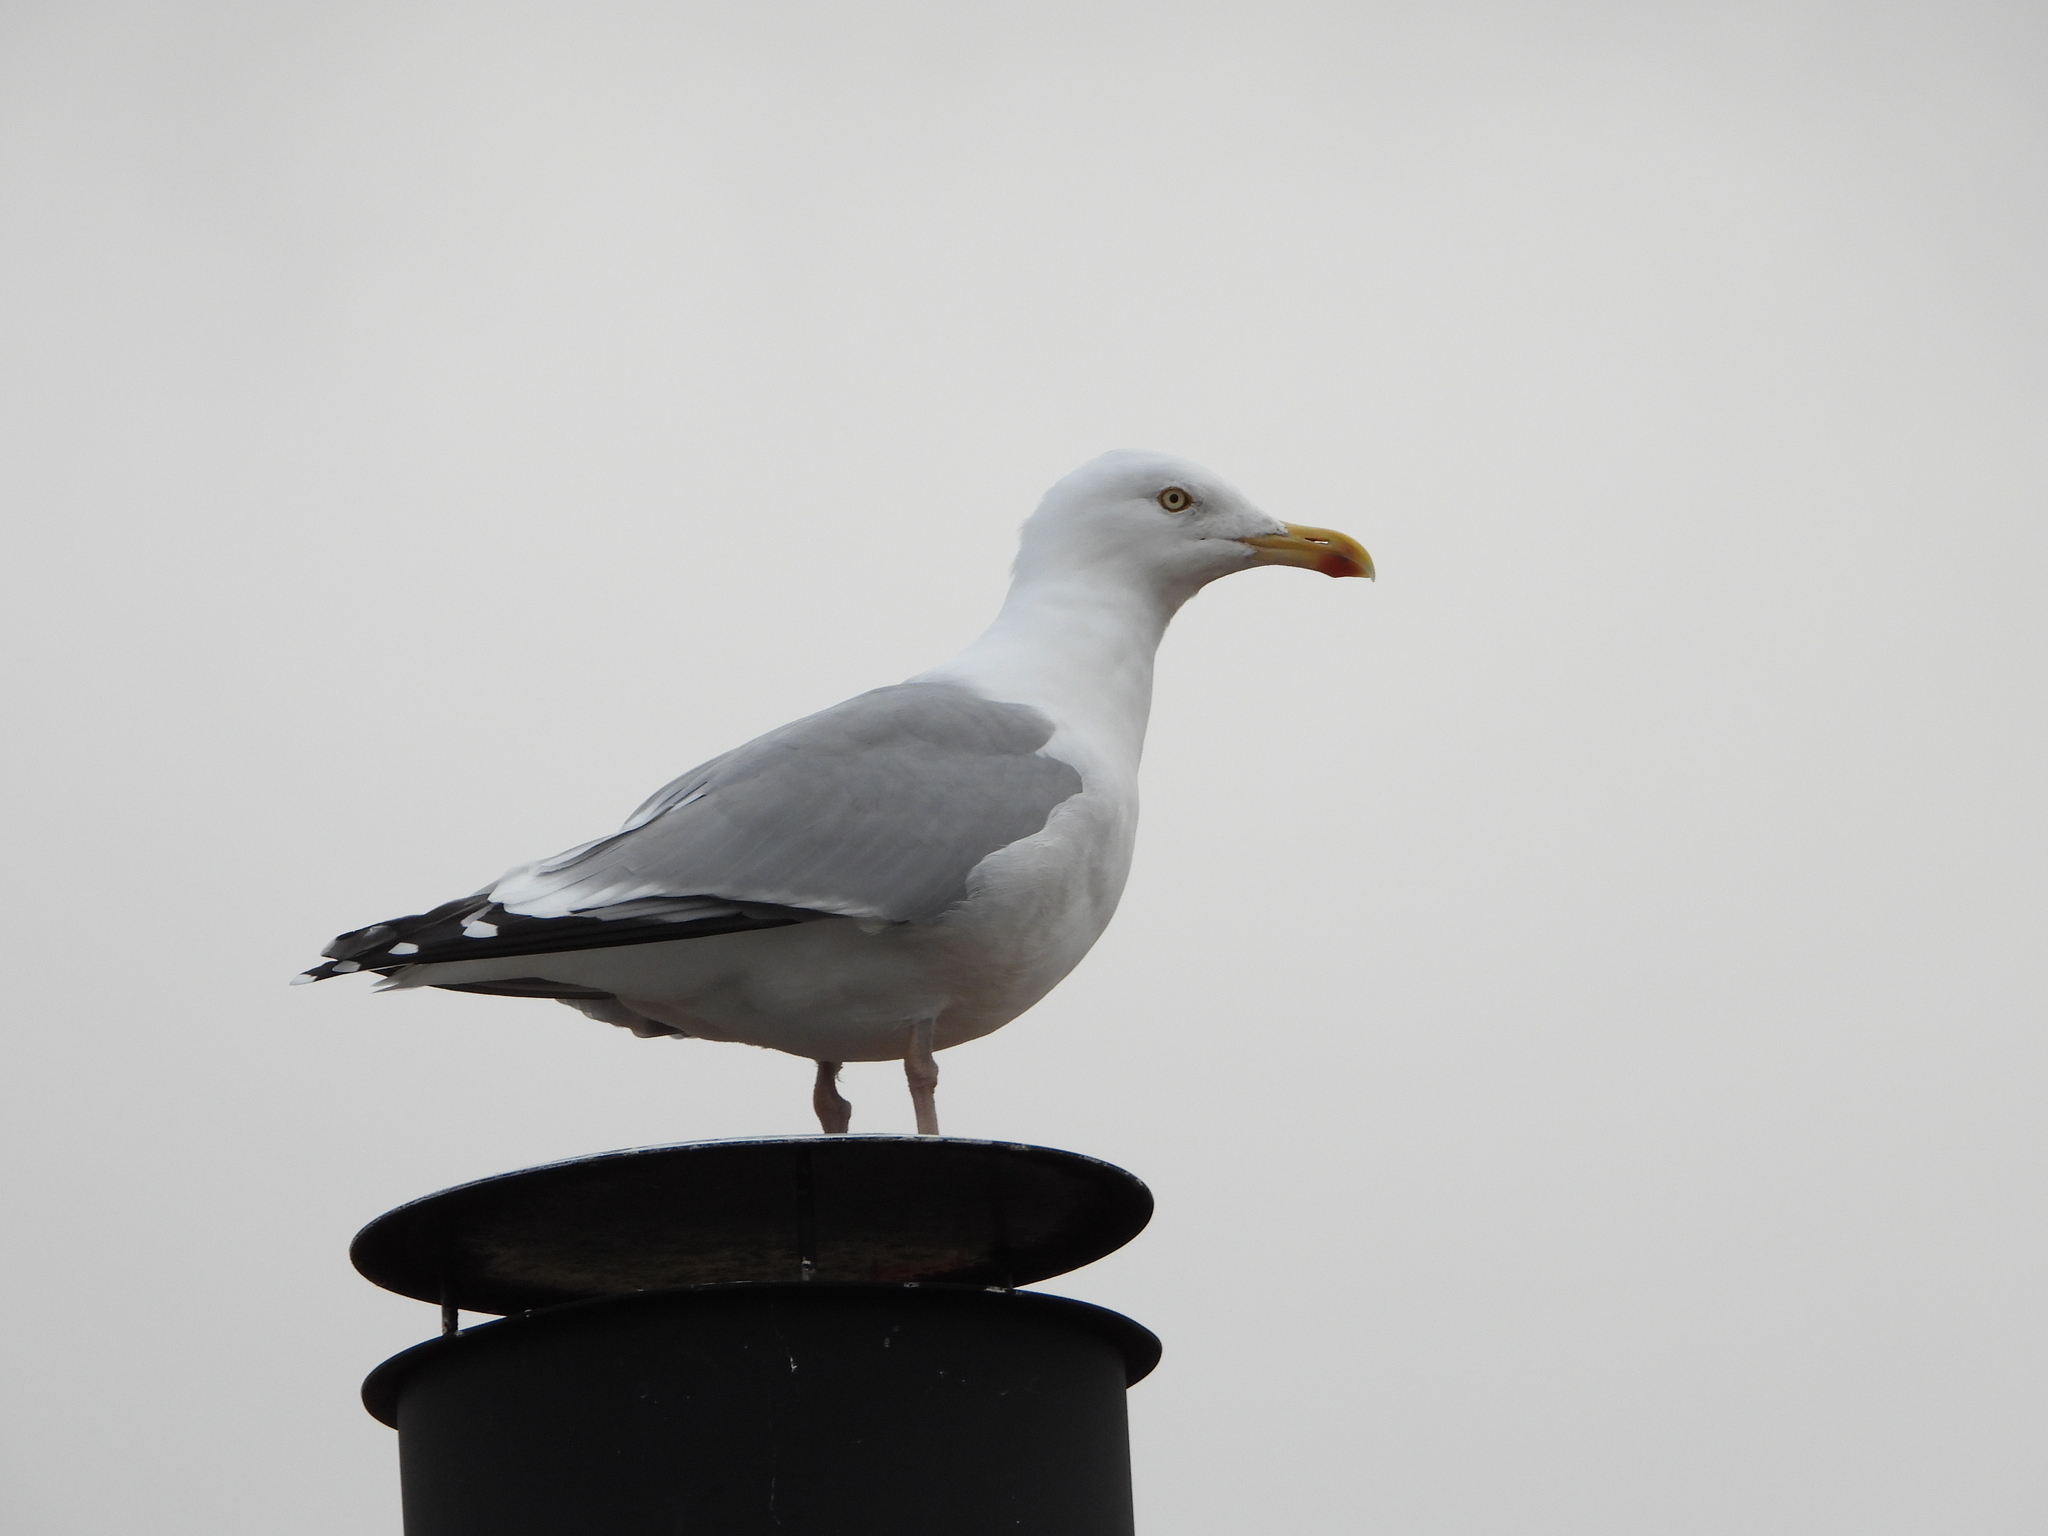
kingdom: Animalia
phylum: Chordata
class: Aves
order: Charadriiformes
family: Laridae
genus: Larus
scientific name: Larus argentatus
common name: Herring gull
